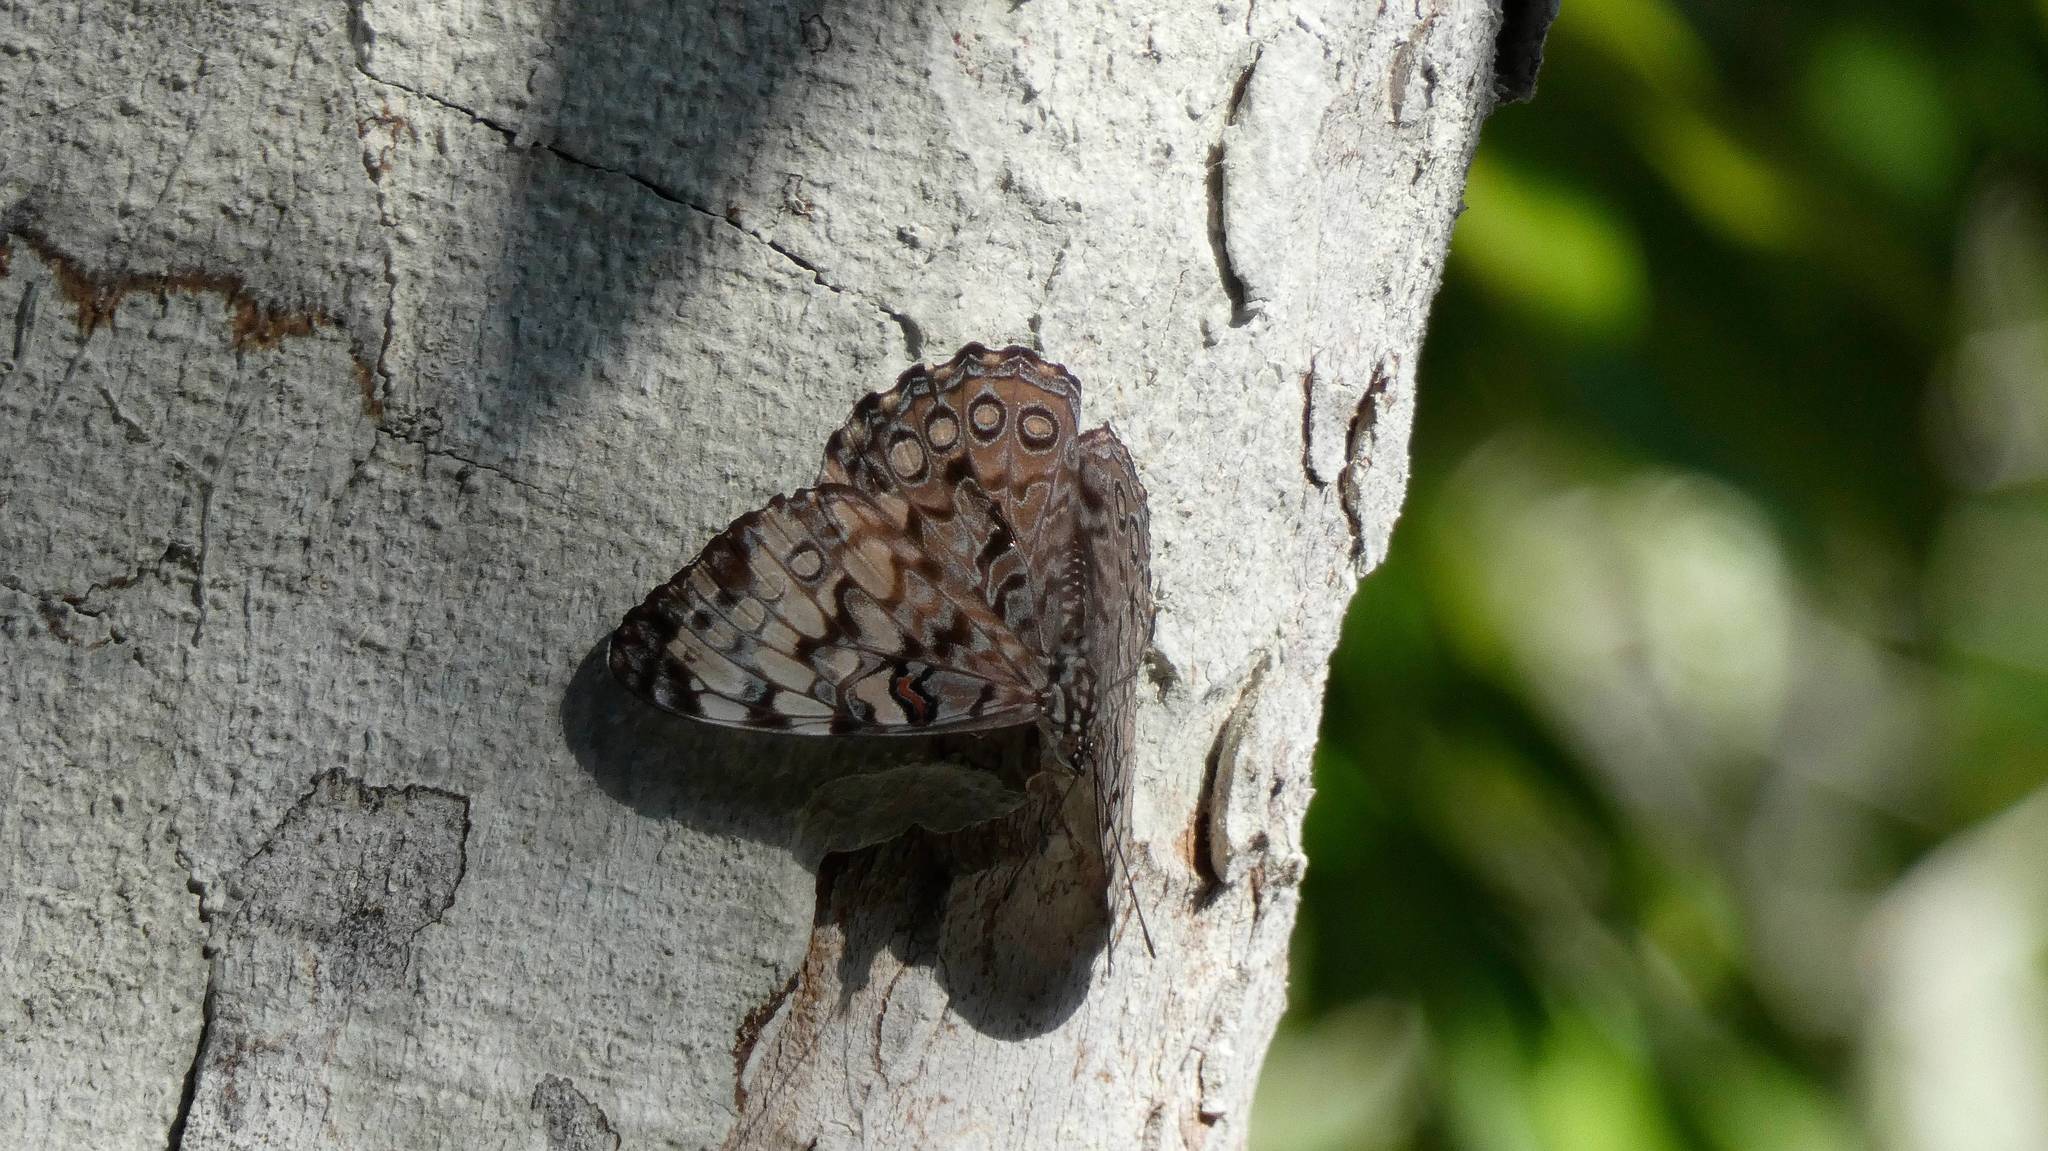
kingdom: Animalia
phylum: Arthropoda
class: Insecta
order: Lepidoptera
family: Nymphalidae
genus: Hamadryas
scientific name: Hamadryas guatemalena
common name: Guatemalan cracker
